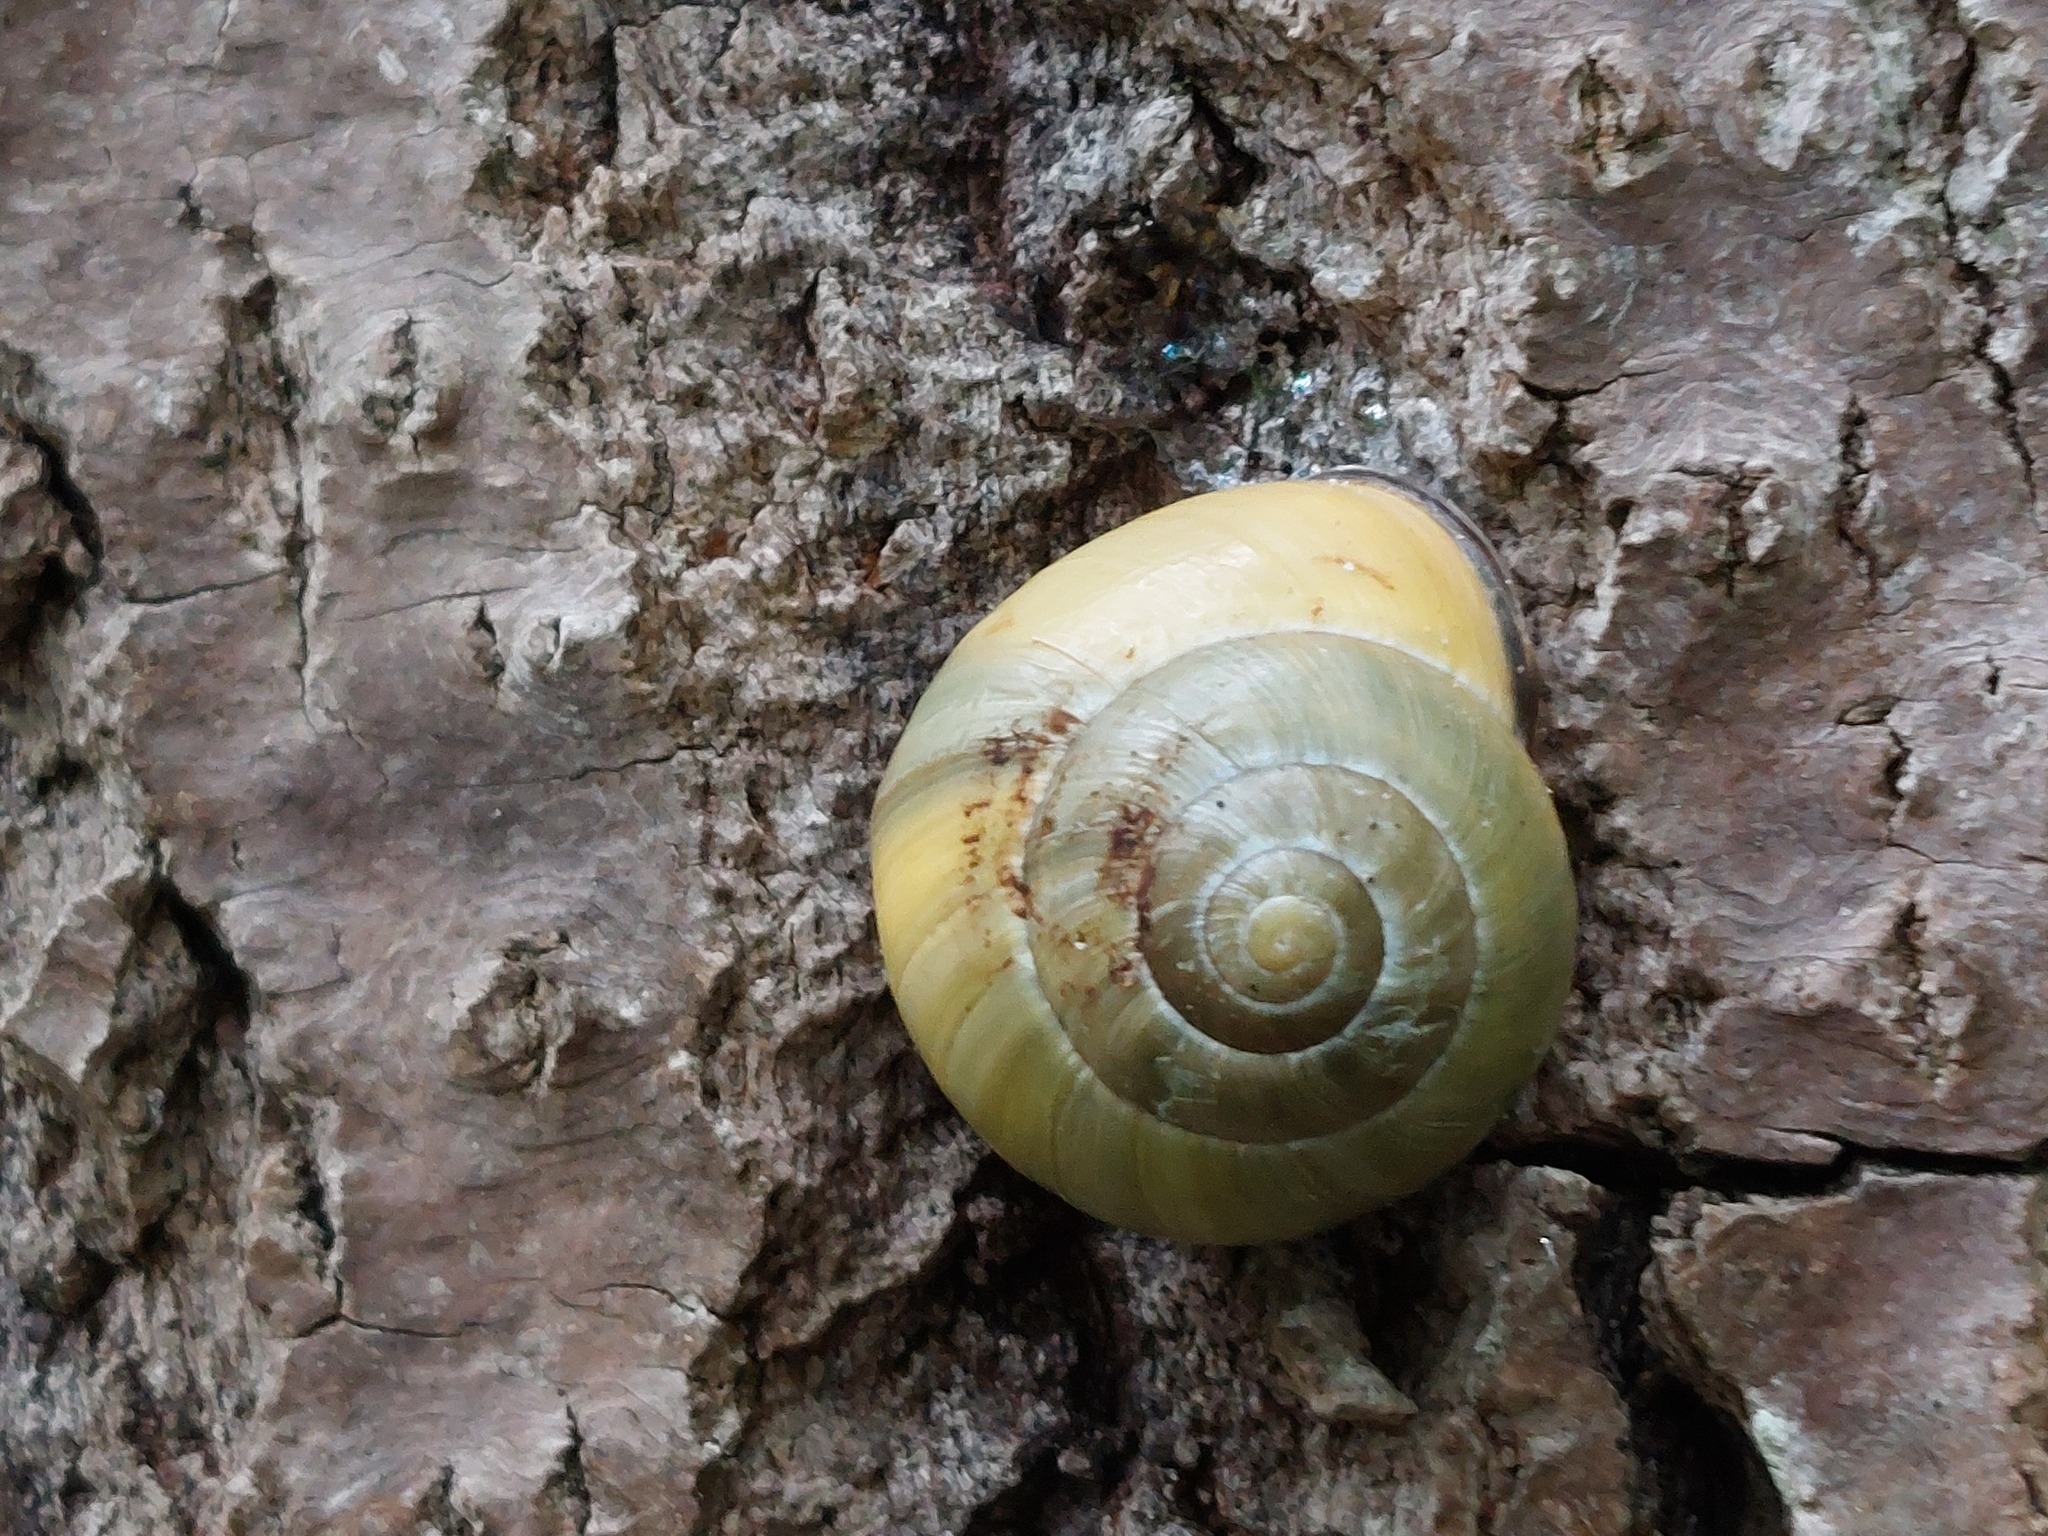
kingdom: Animalia
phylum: Mollusca
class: Gastropoda
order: Stylommatophora
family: Helicidae
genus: Cepaea
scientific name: Cepaea nemoralis
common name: Grovesnail
